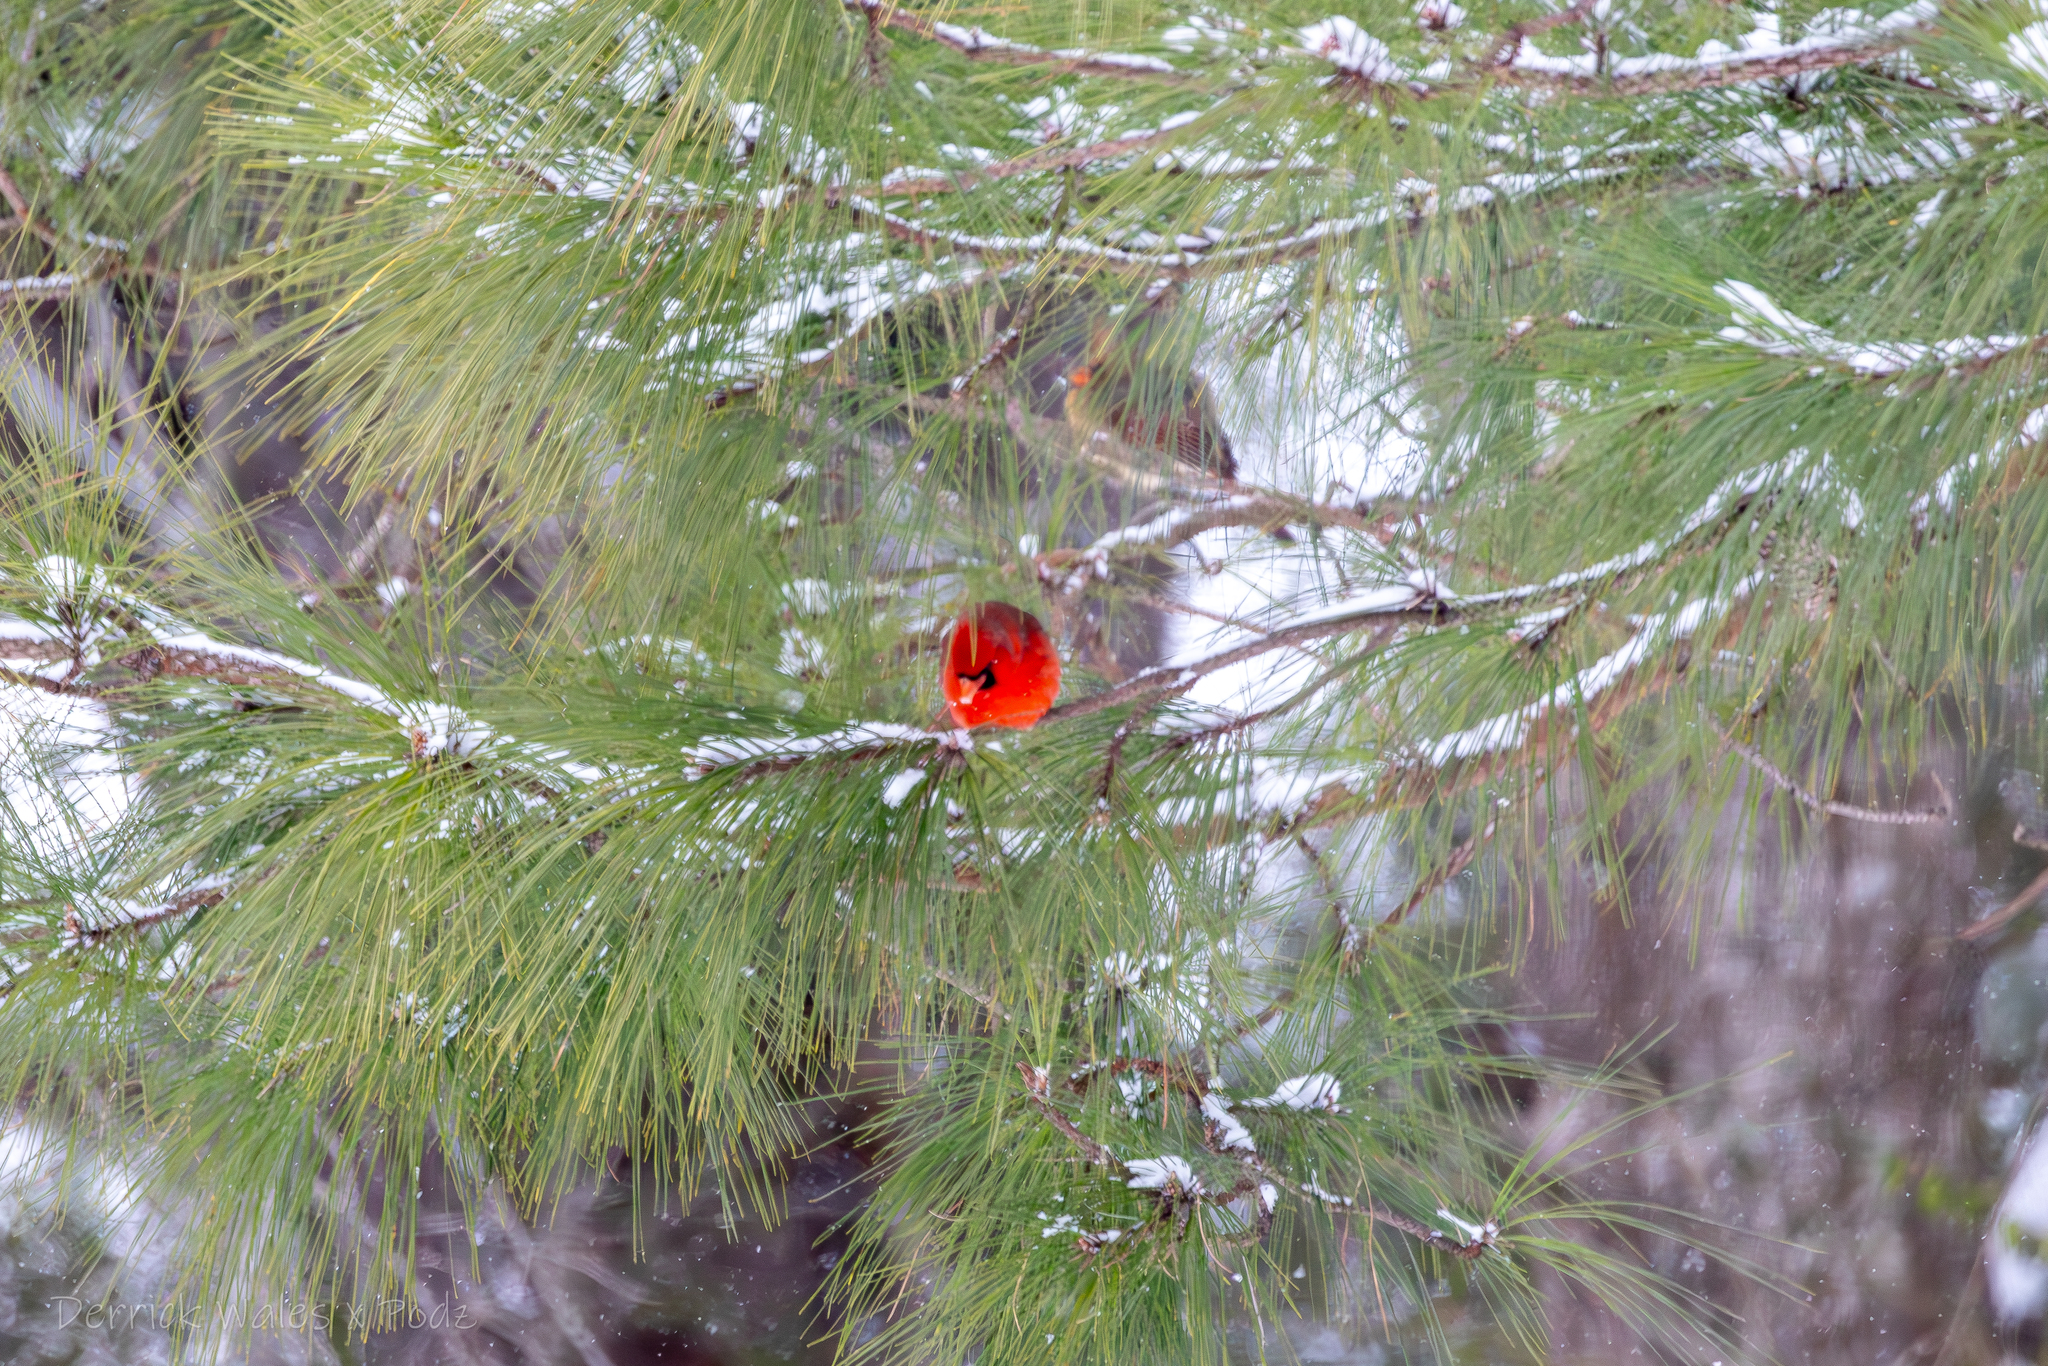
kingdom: Animalia
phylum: Chordata
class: Aves
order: Passeriformes
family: Cardinalidae
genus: Cardinalis
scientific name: Cardinalis cardinalis
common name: Northern cardinal
